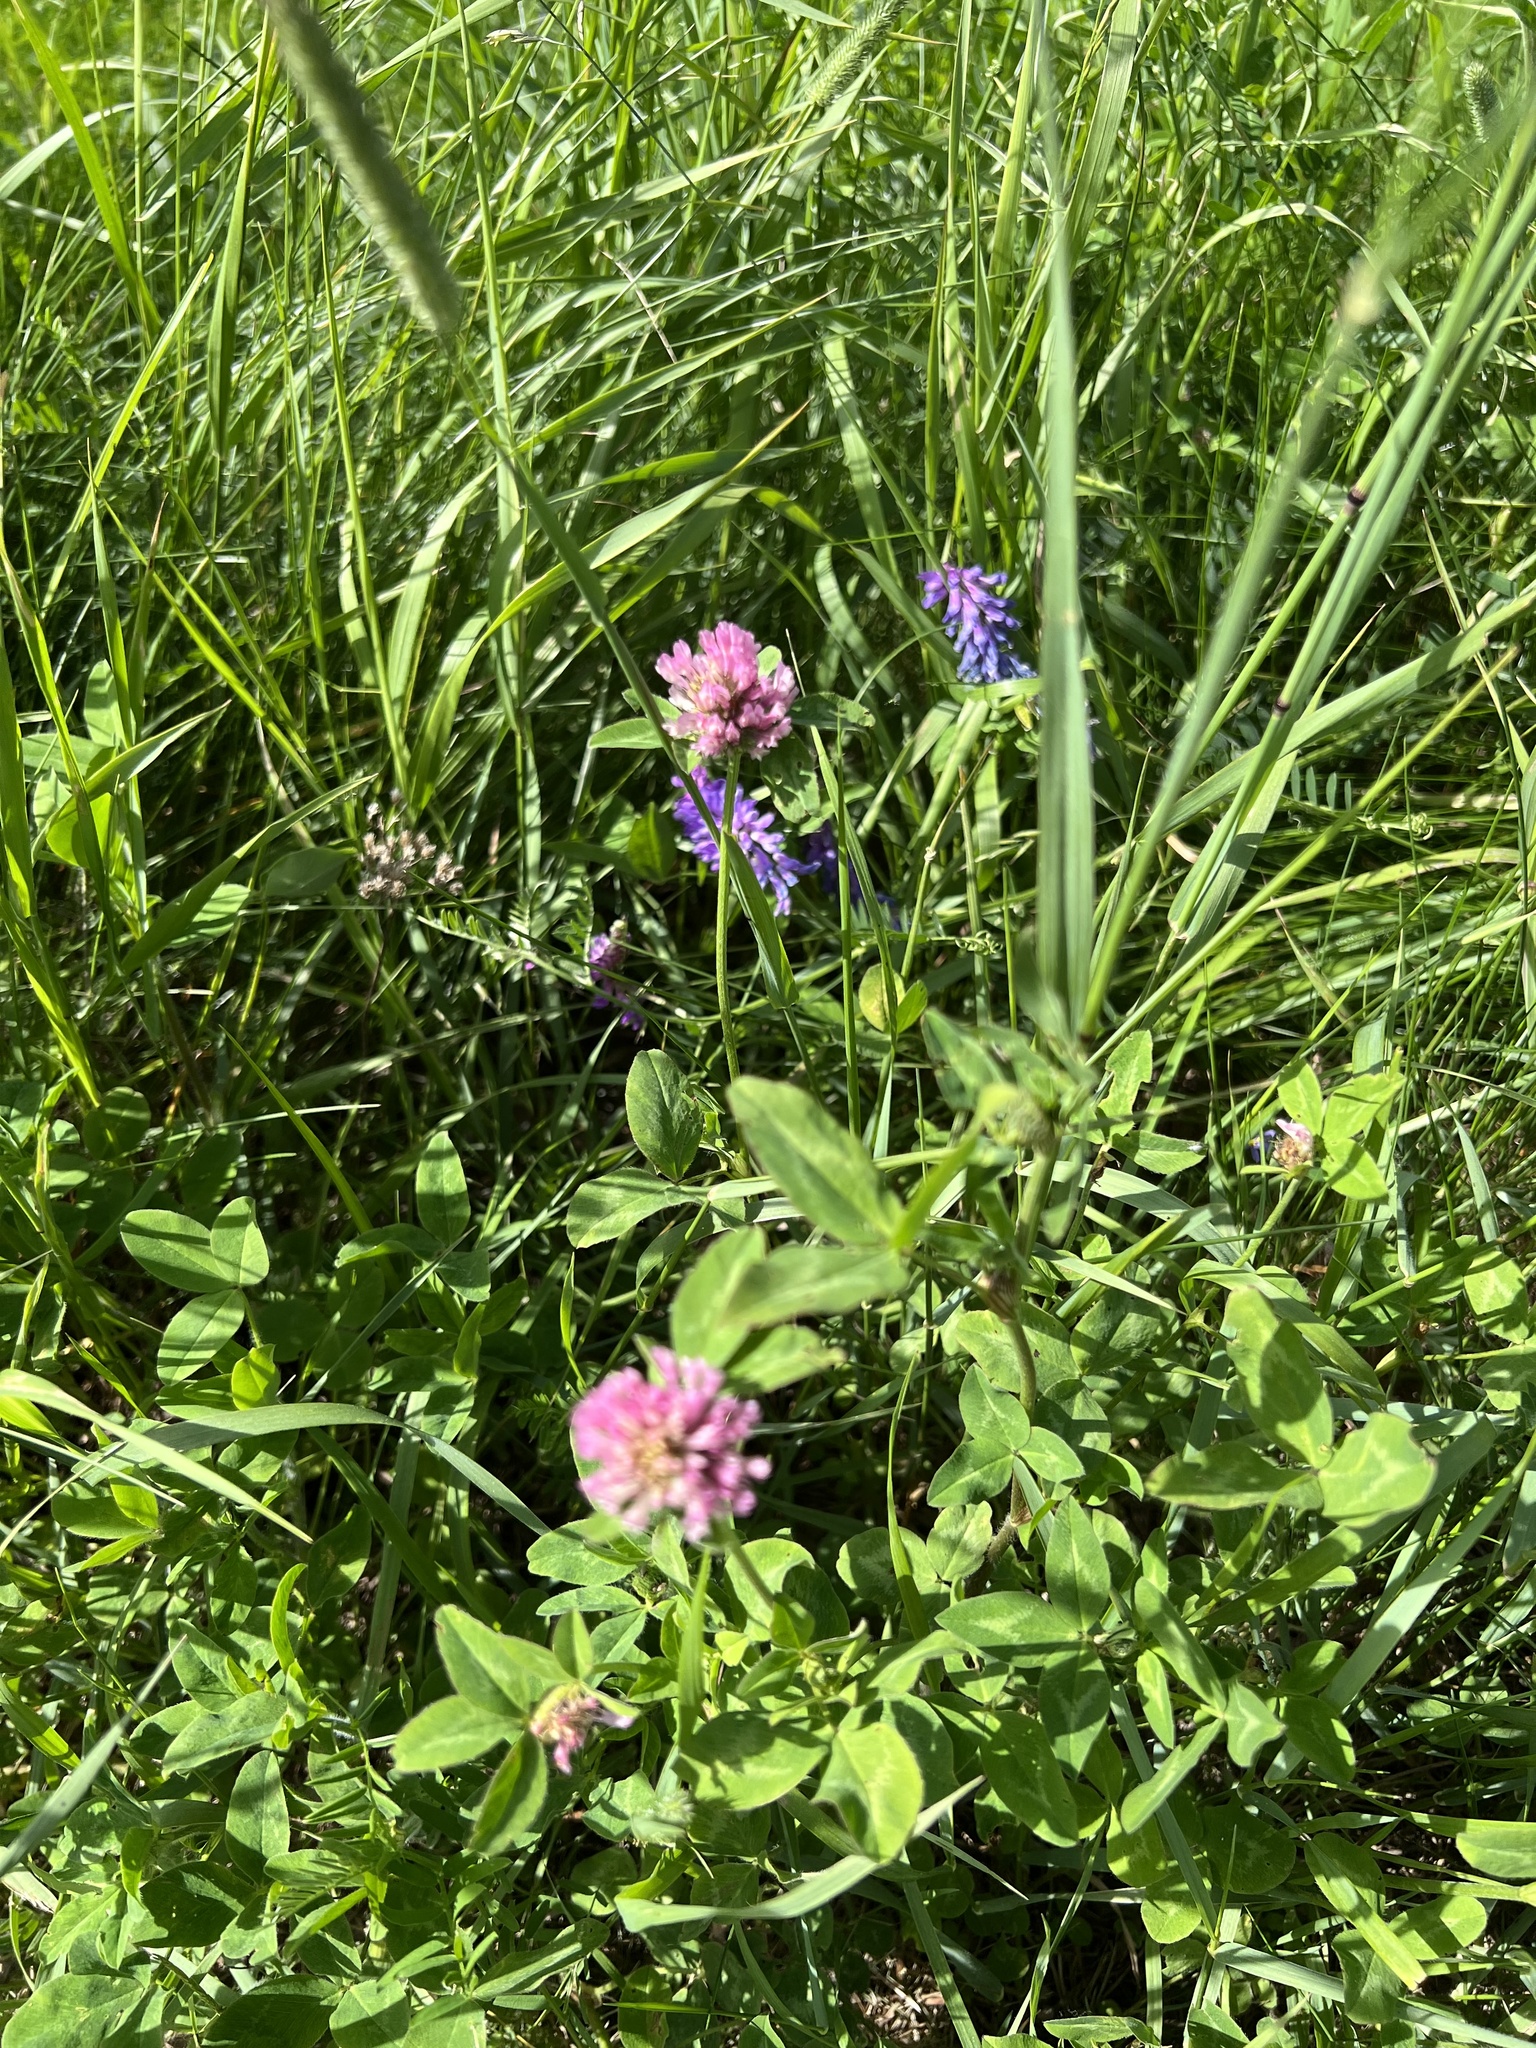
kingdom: Plantae
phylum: Tracheophyta
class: Magnoliopsida
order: Fabales
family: Fabaceae
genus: Trifolium
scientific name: Trifolium pratense
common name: Red clover
